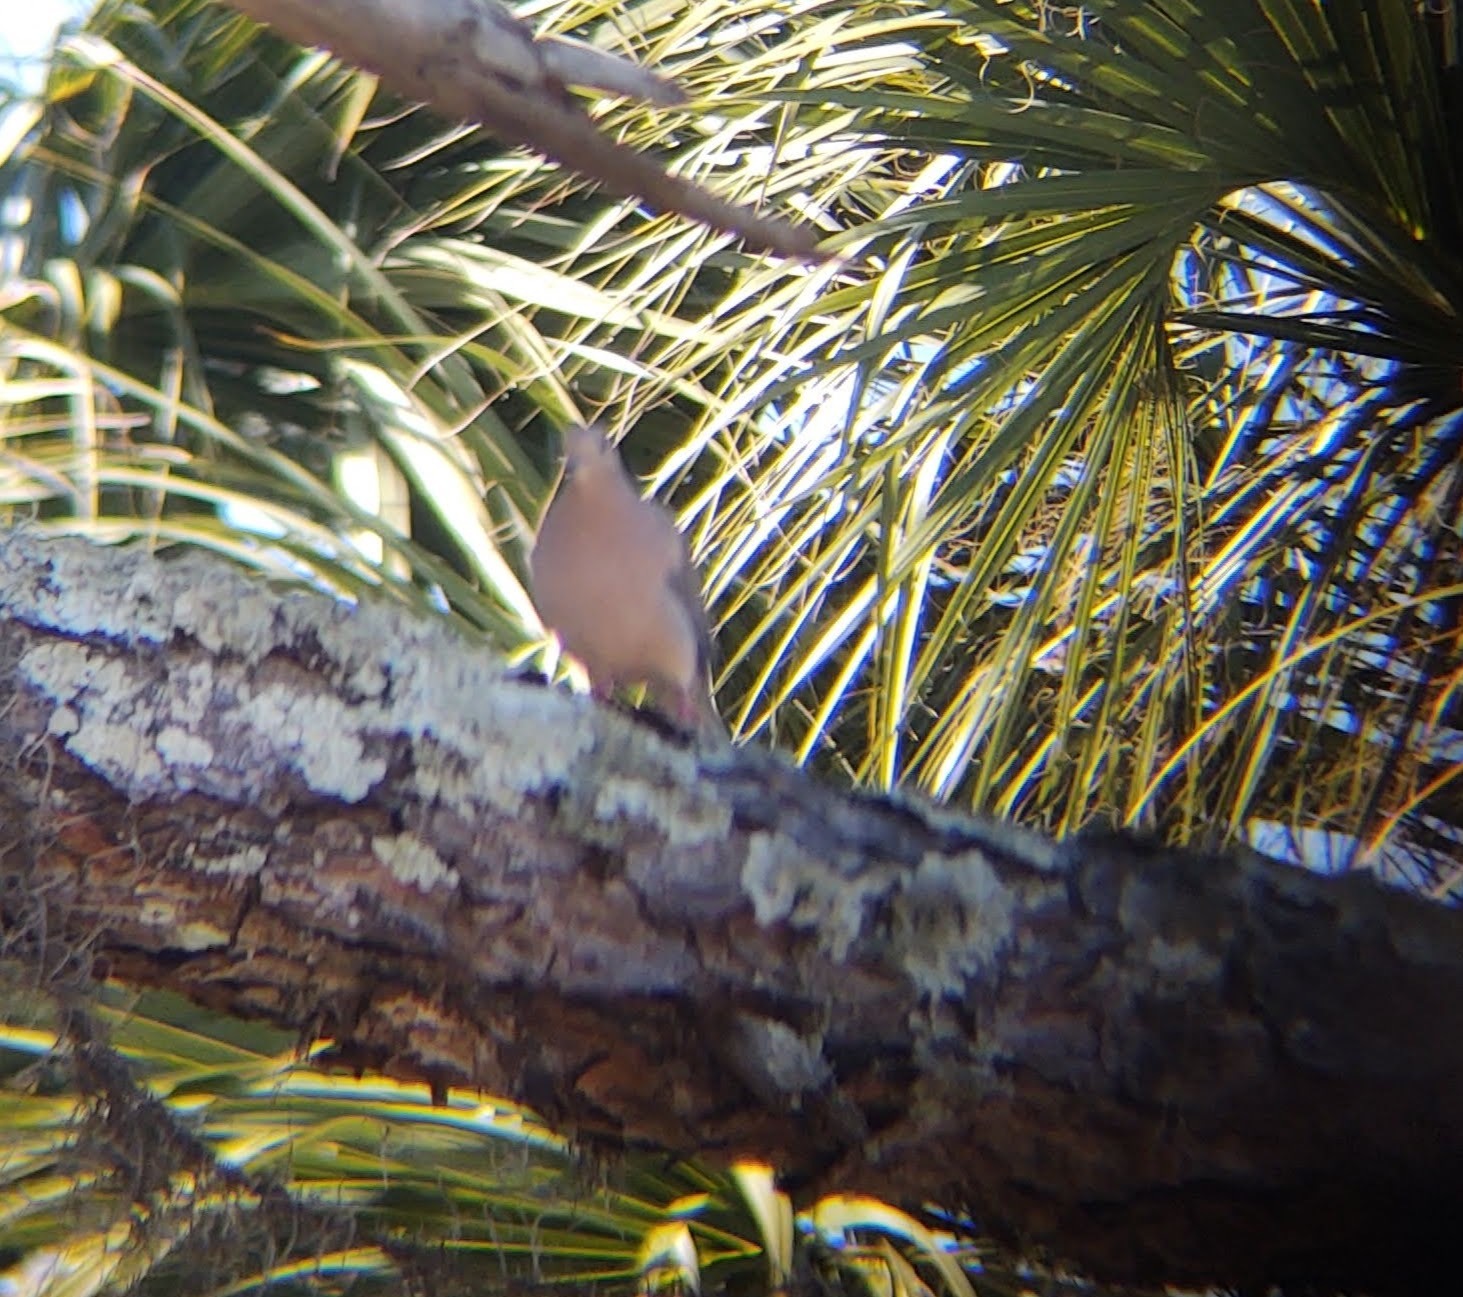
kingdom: Animalia
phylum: Chordata
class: Aves
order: Columbiformes
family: Columbidae
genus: Zenaida
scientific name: Zenaida macroura
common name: Mourning dove
